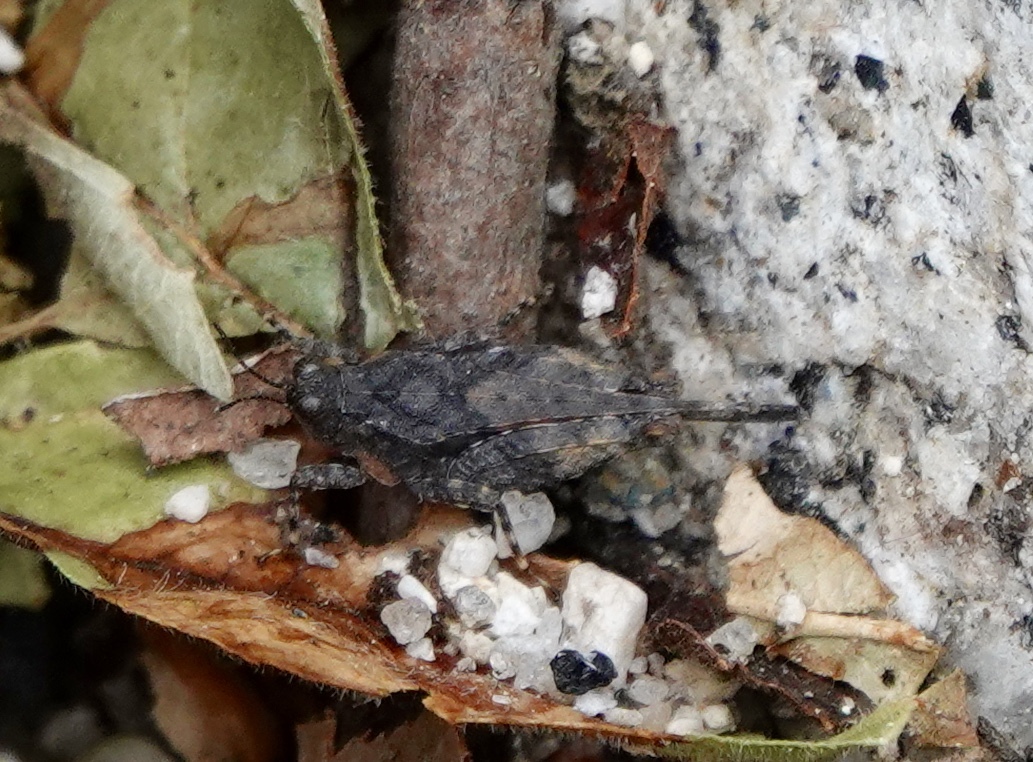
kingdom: Animalia
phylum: Arthropoda
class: Insecta
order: Orthoptera
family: Tetrigidae
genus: Paratettix
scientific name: Paratettix aztecus
